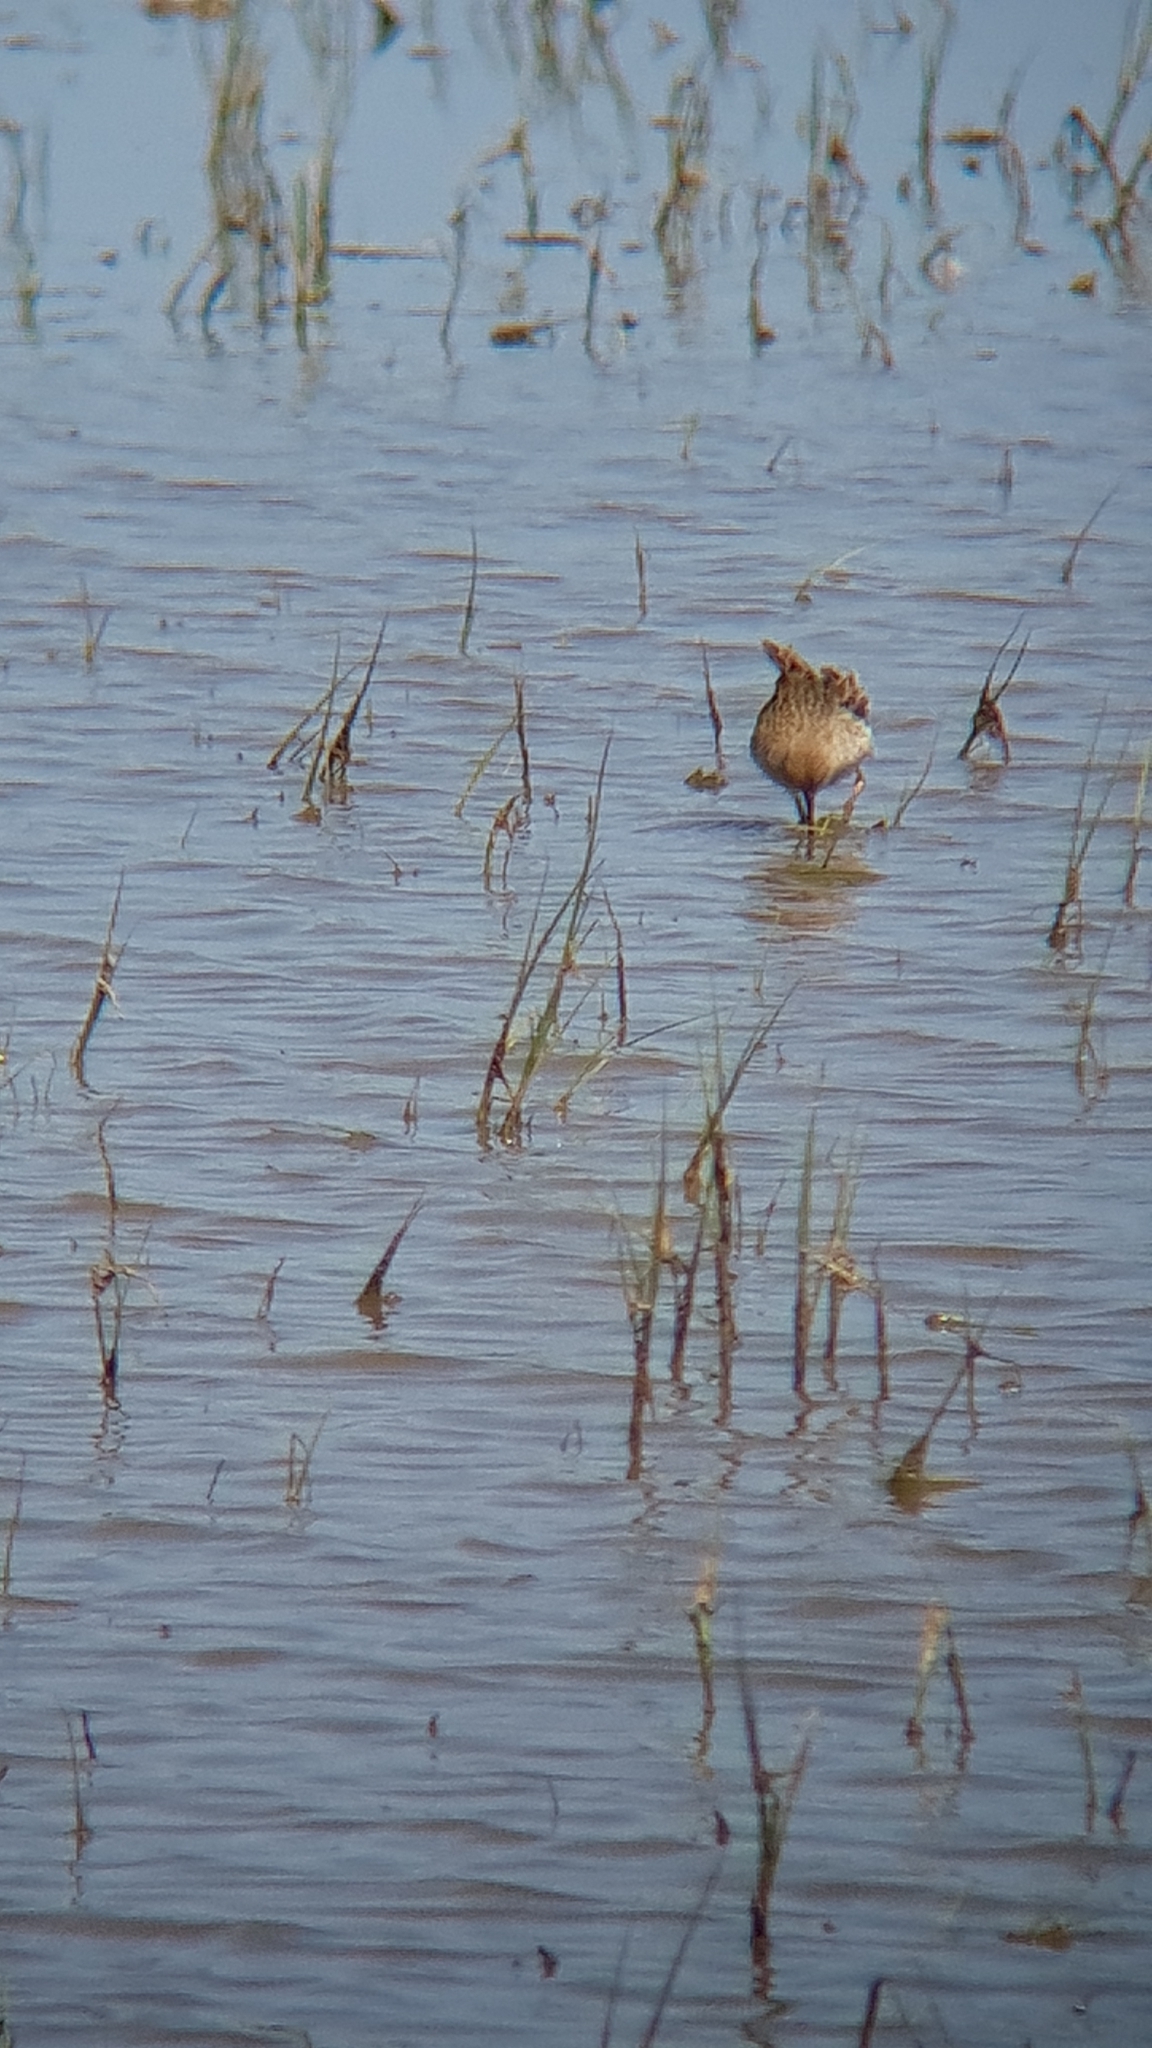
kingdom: Animalia
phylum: Chordata
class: Aves
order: Charadriiformes
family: Scolopacidae
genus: Calidris
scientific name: Calidris pugnax
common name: Ruff
